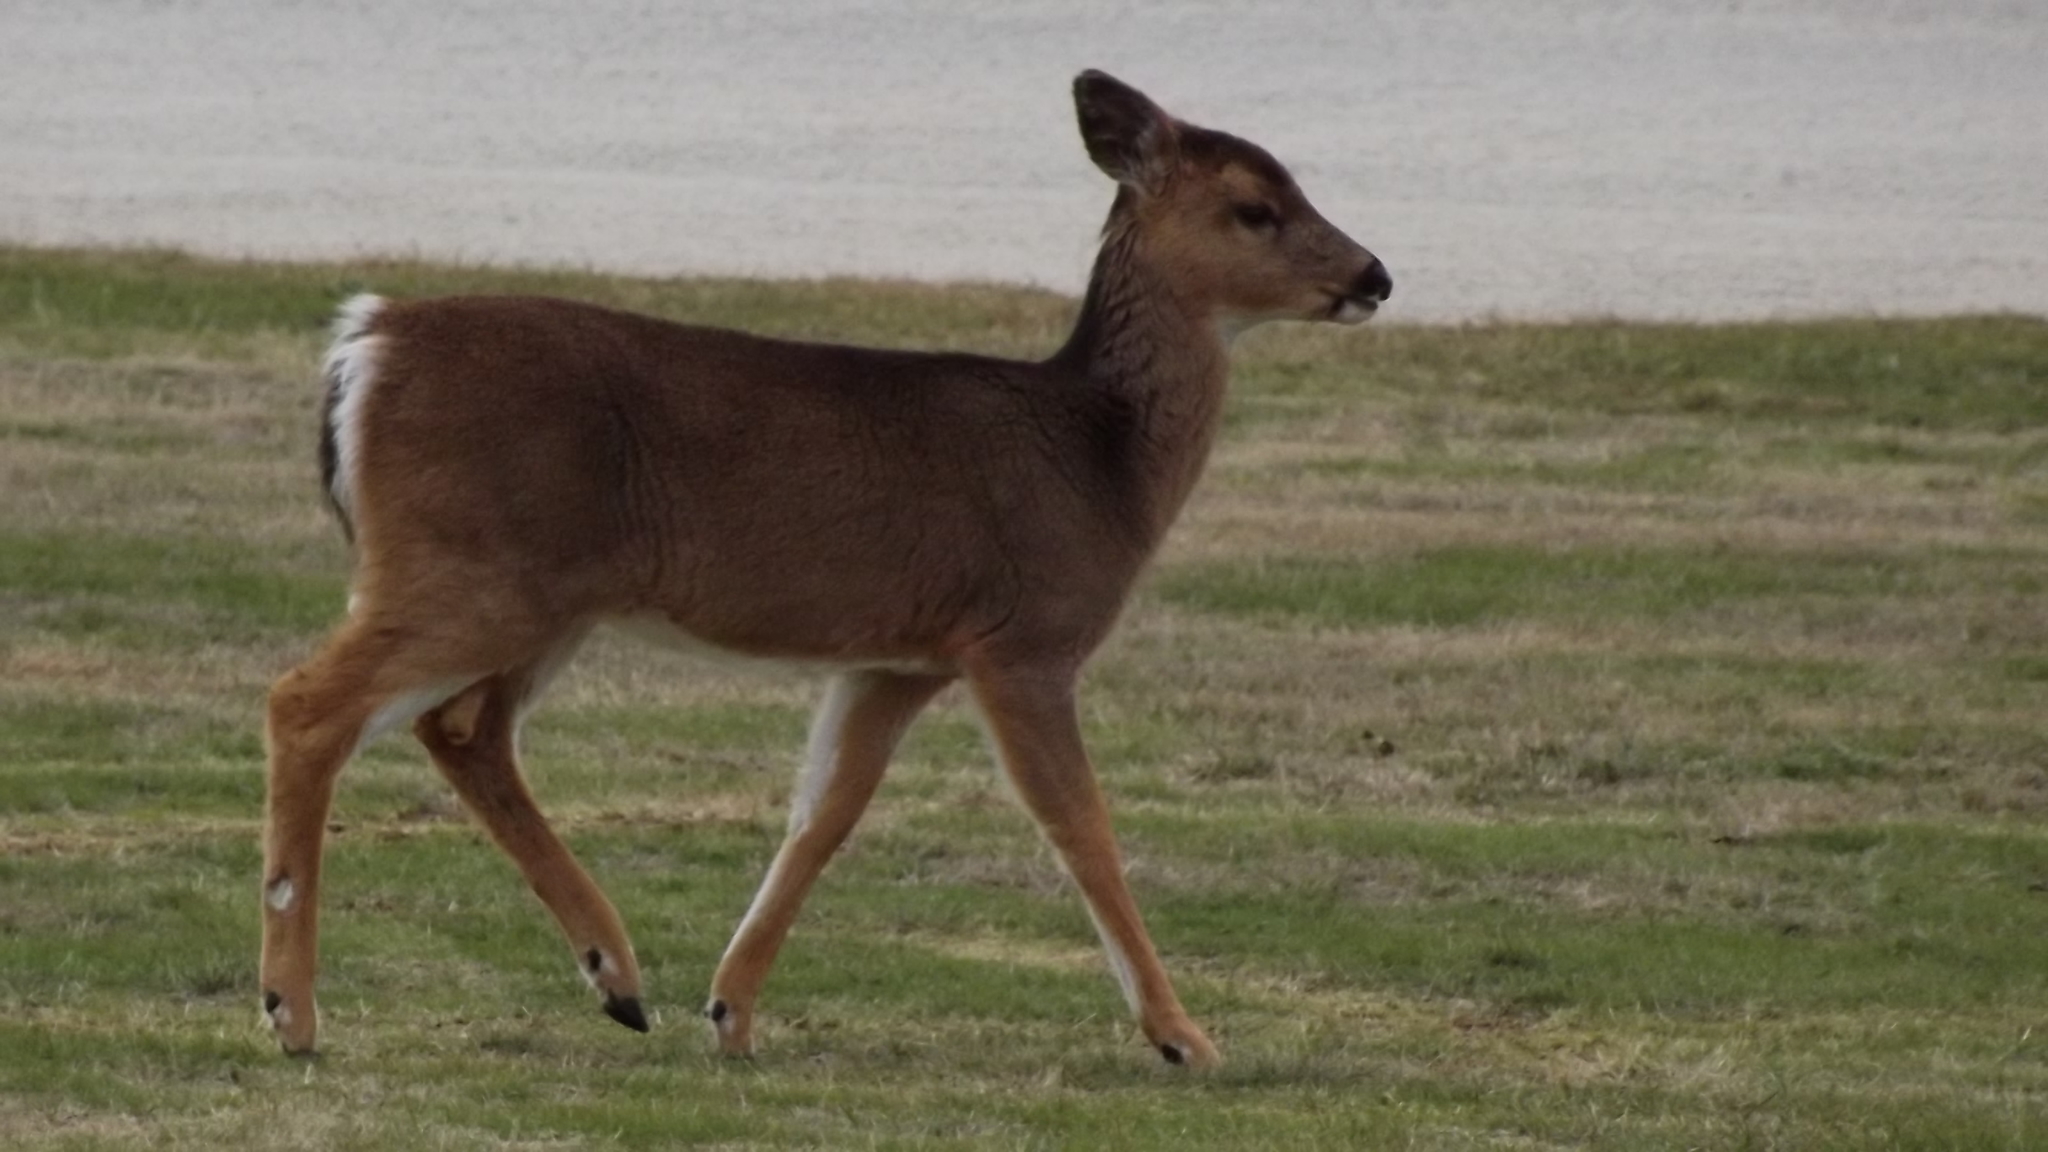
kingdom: Animalia
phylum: Chordata
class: Mammalia
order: Artiodactyla
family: Cervidae
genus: Odocoileus
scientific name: Odocoileus virginianus
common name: White-tailed deer
